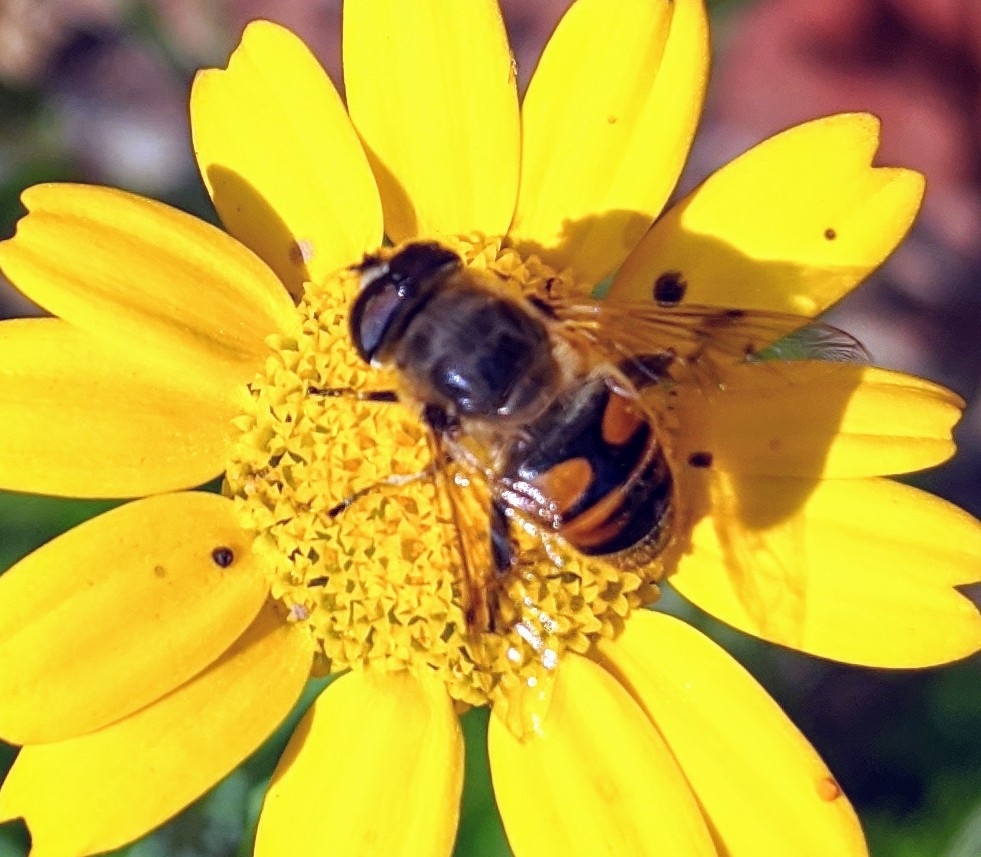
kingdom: Animalia
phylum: Arthropoda
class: Insecta
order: Diptera
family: Syrphidae
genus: Eristalis
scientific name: Eristalis tenax
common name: Drone fly
